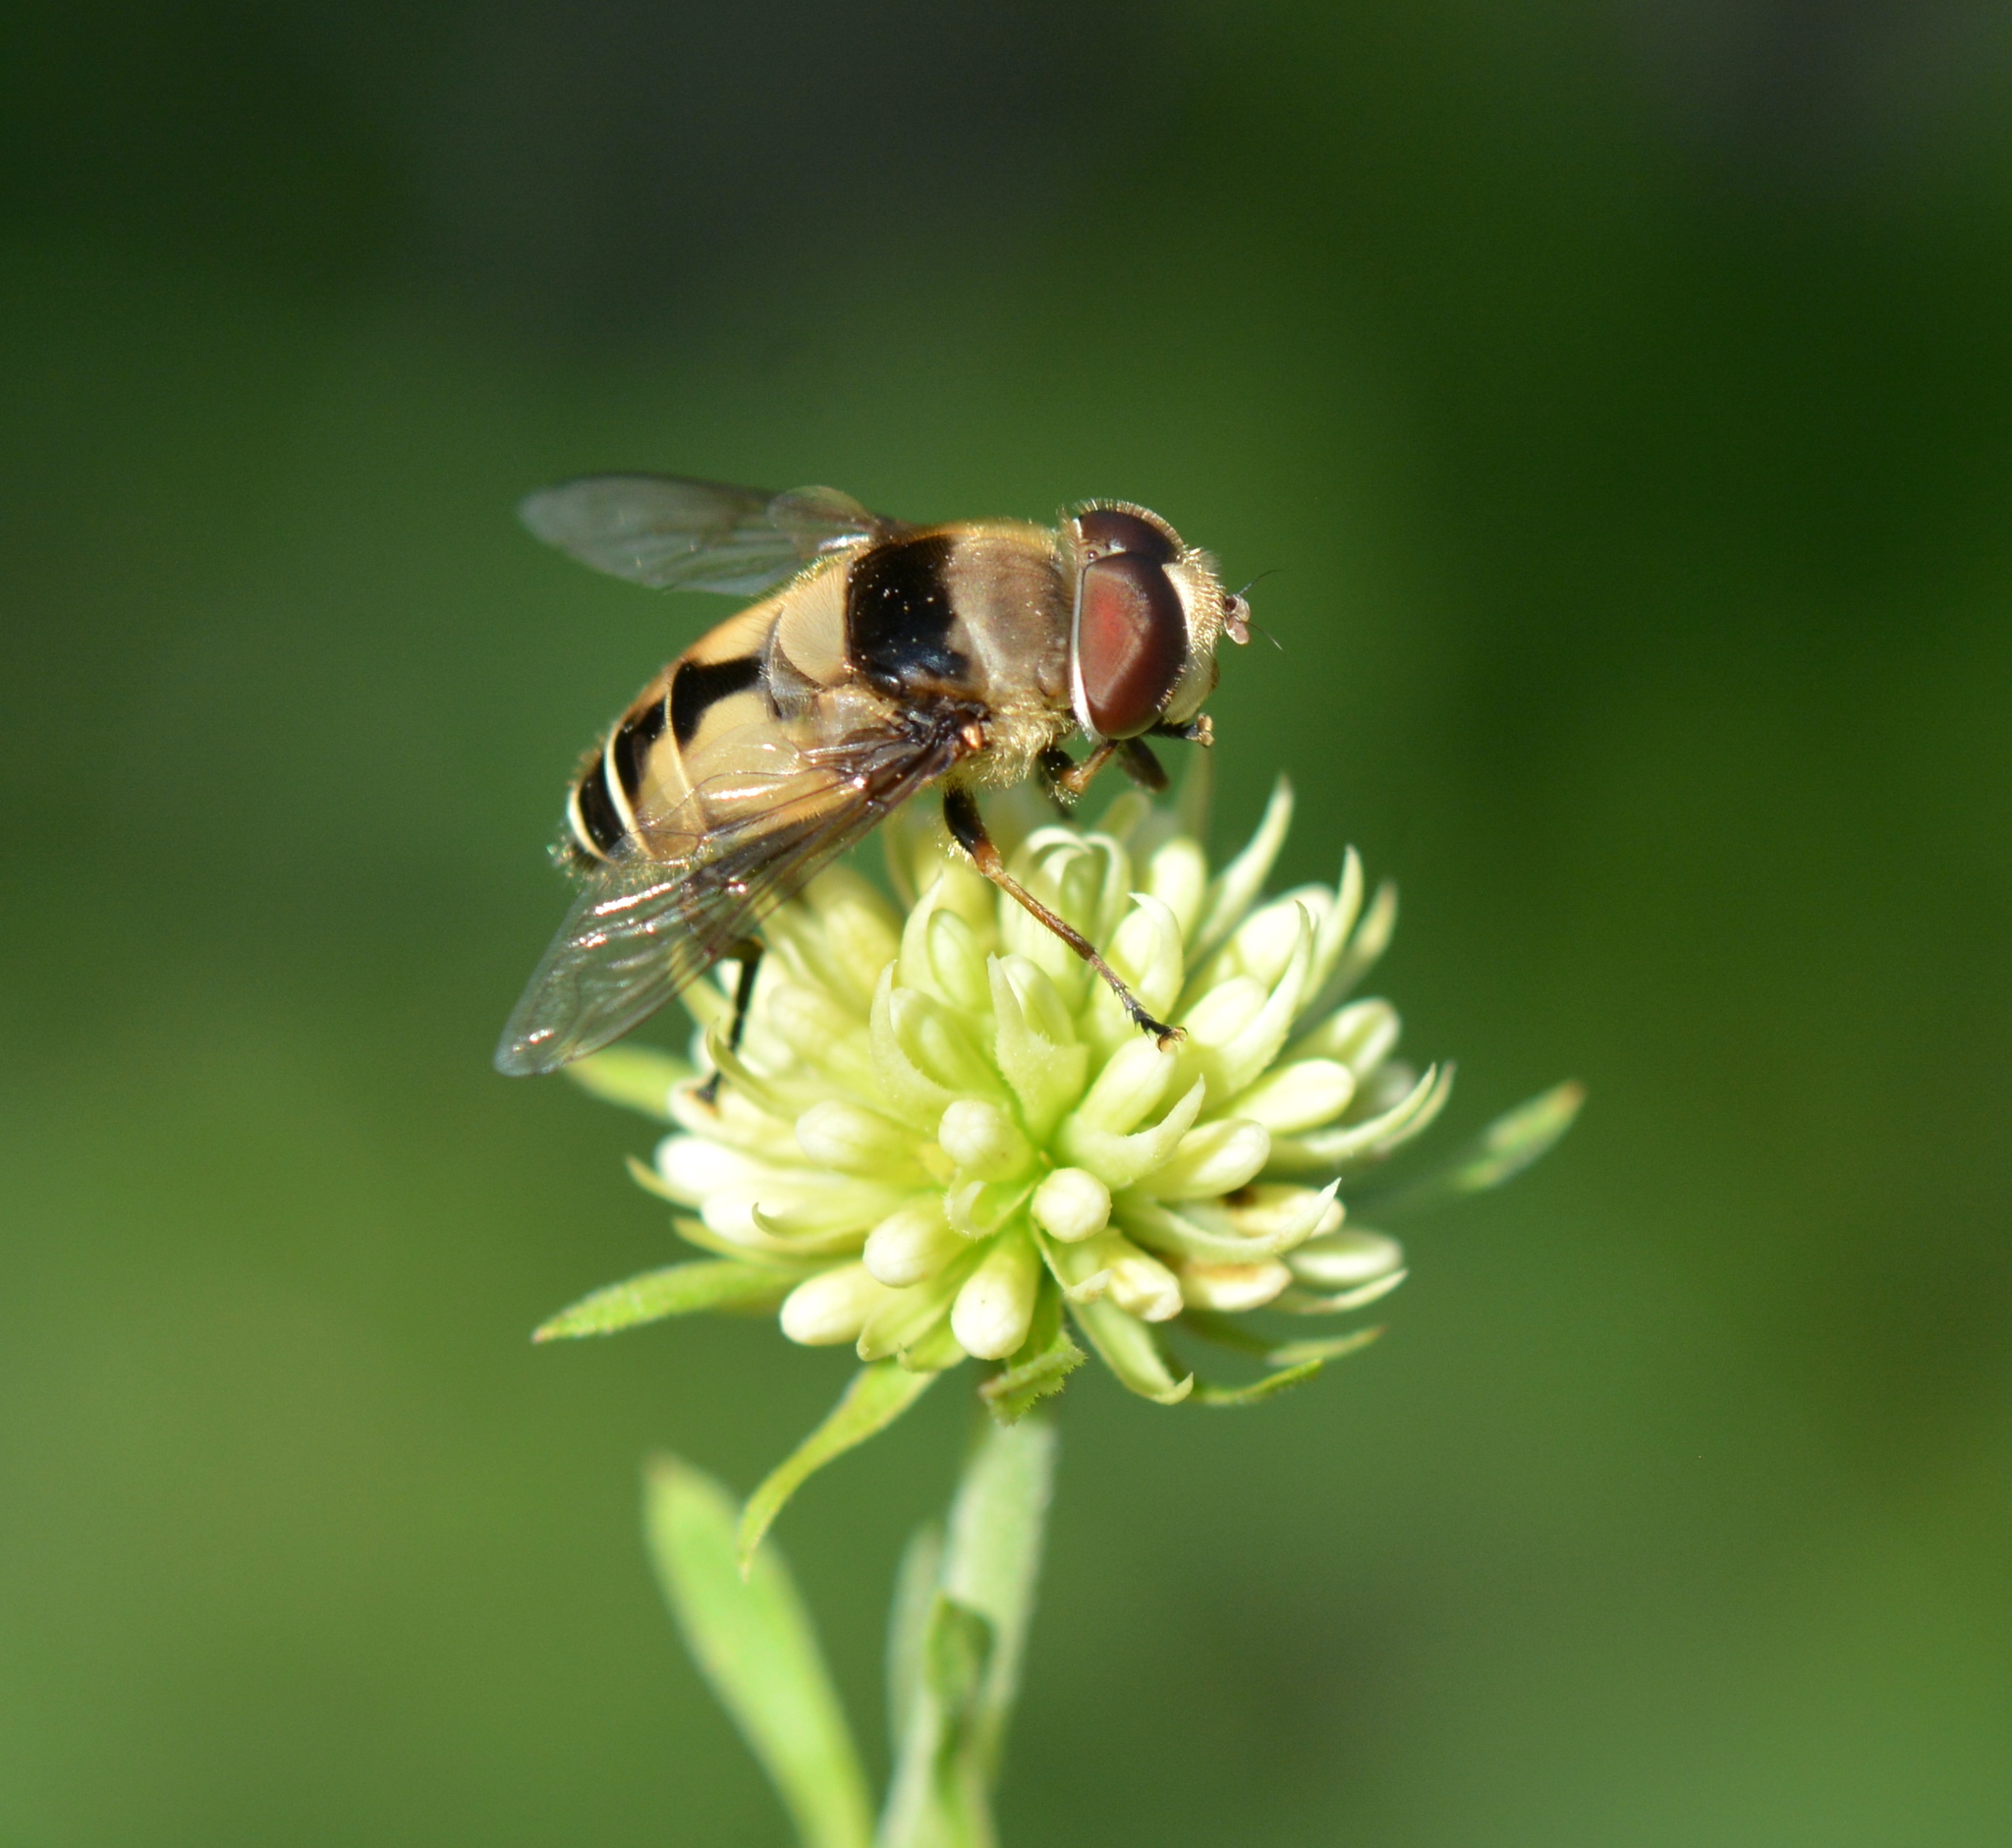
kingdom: Animalia
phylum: Arthropoda
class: Insecta
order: Diptera
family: Syrphidae
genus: Palpada
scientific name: Palpada pusilla
